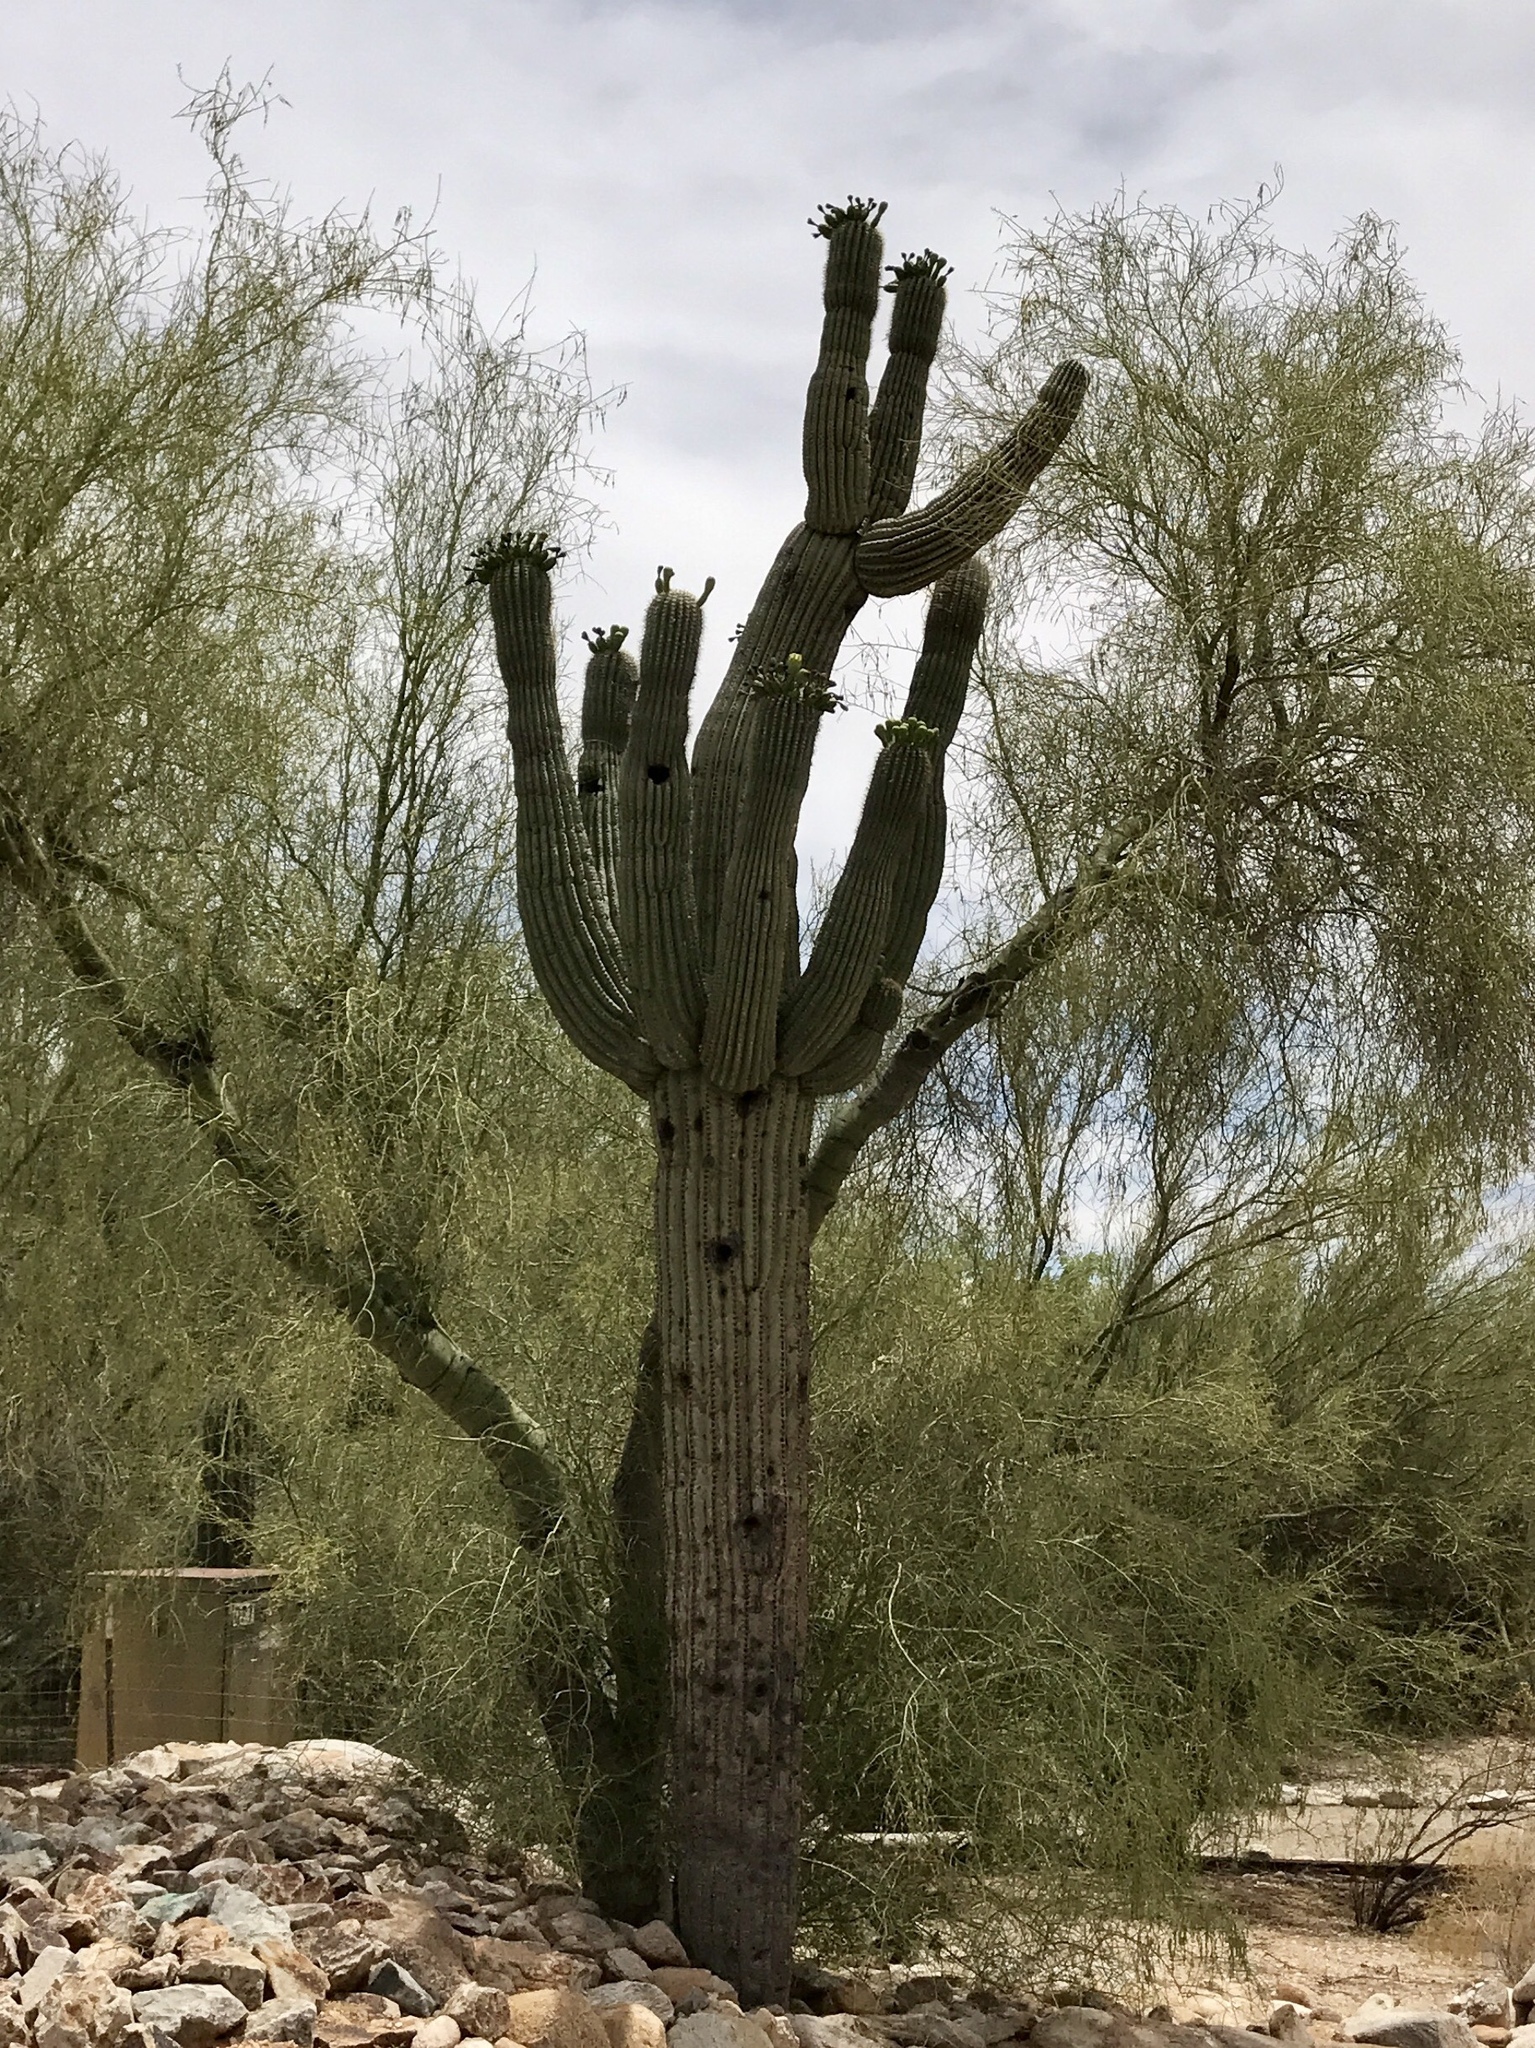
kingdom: Plantae
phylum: Tracheophyta
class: Magnoliopsida
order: Caryophyllales
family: Cactaceae
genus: Carnegiea
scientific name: Carnegiea gigantea
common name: Saguaro
